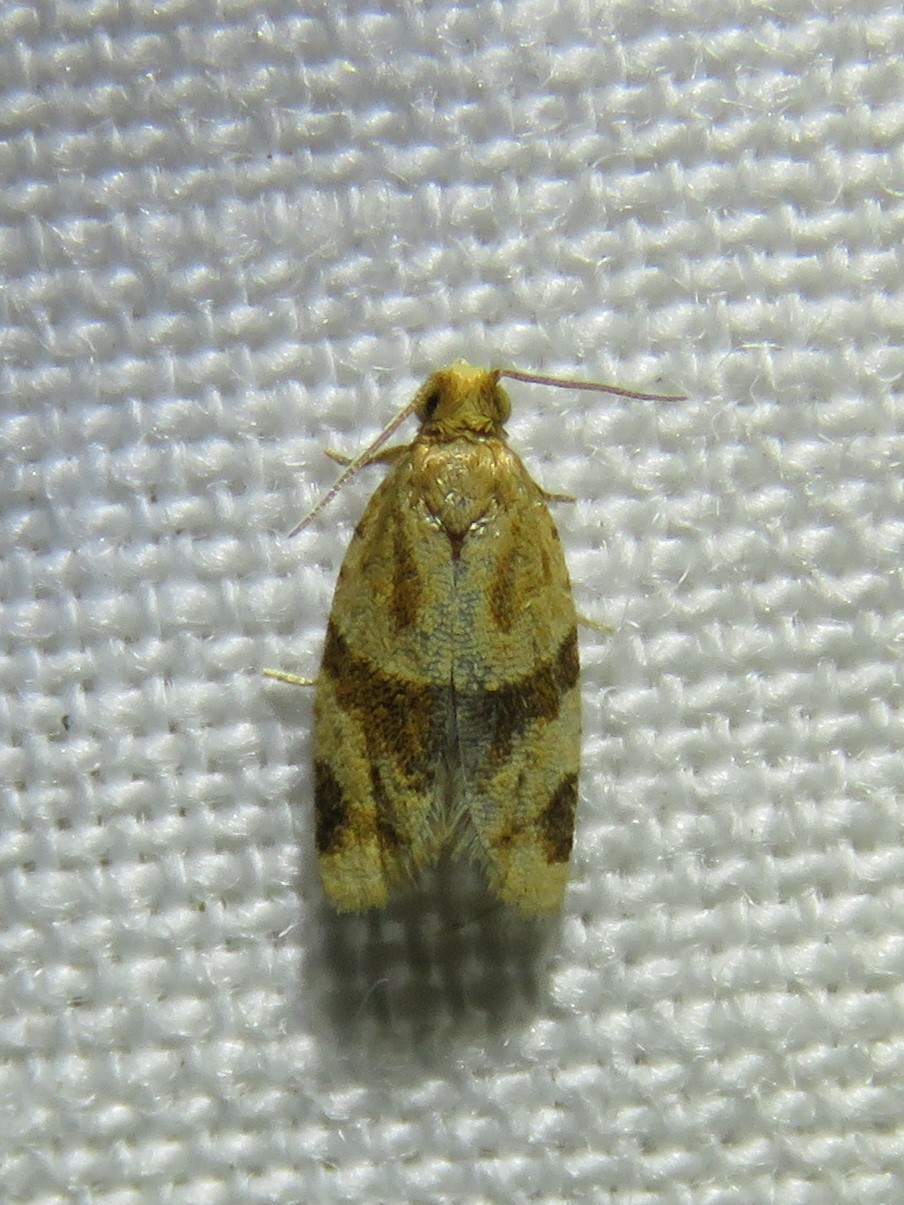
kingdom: Animalia
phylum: Arthropoda
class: Insecta
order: Lepidoptera
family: Tortricidae
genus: Clepsis
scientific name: Clepsis peritana
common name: Garden tortrix
